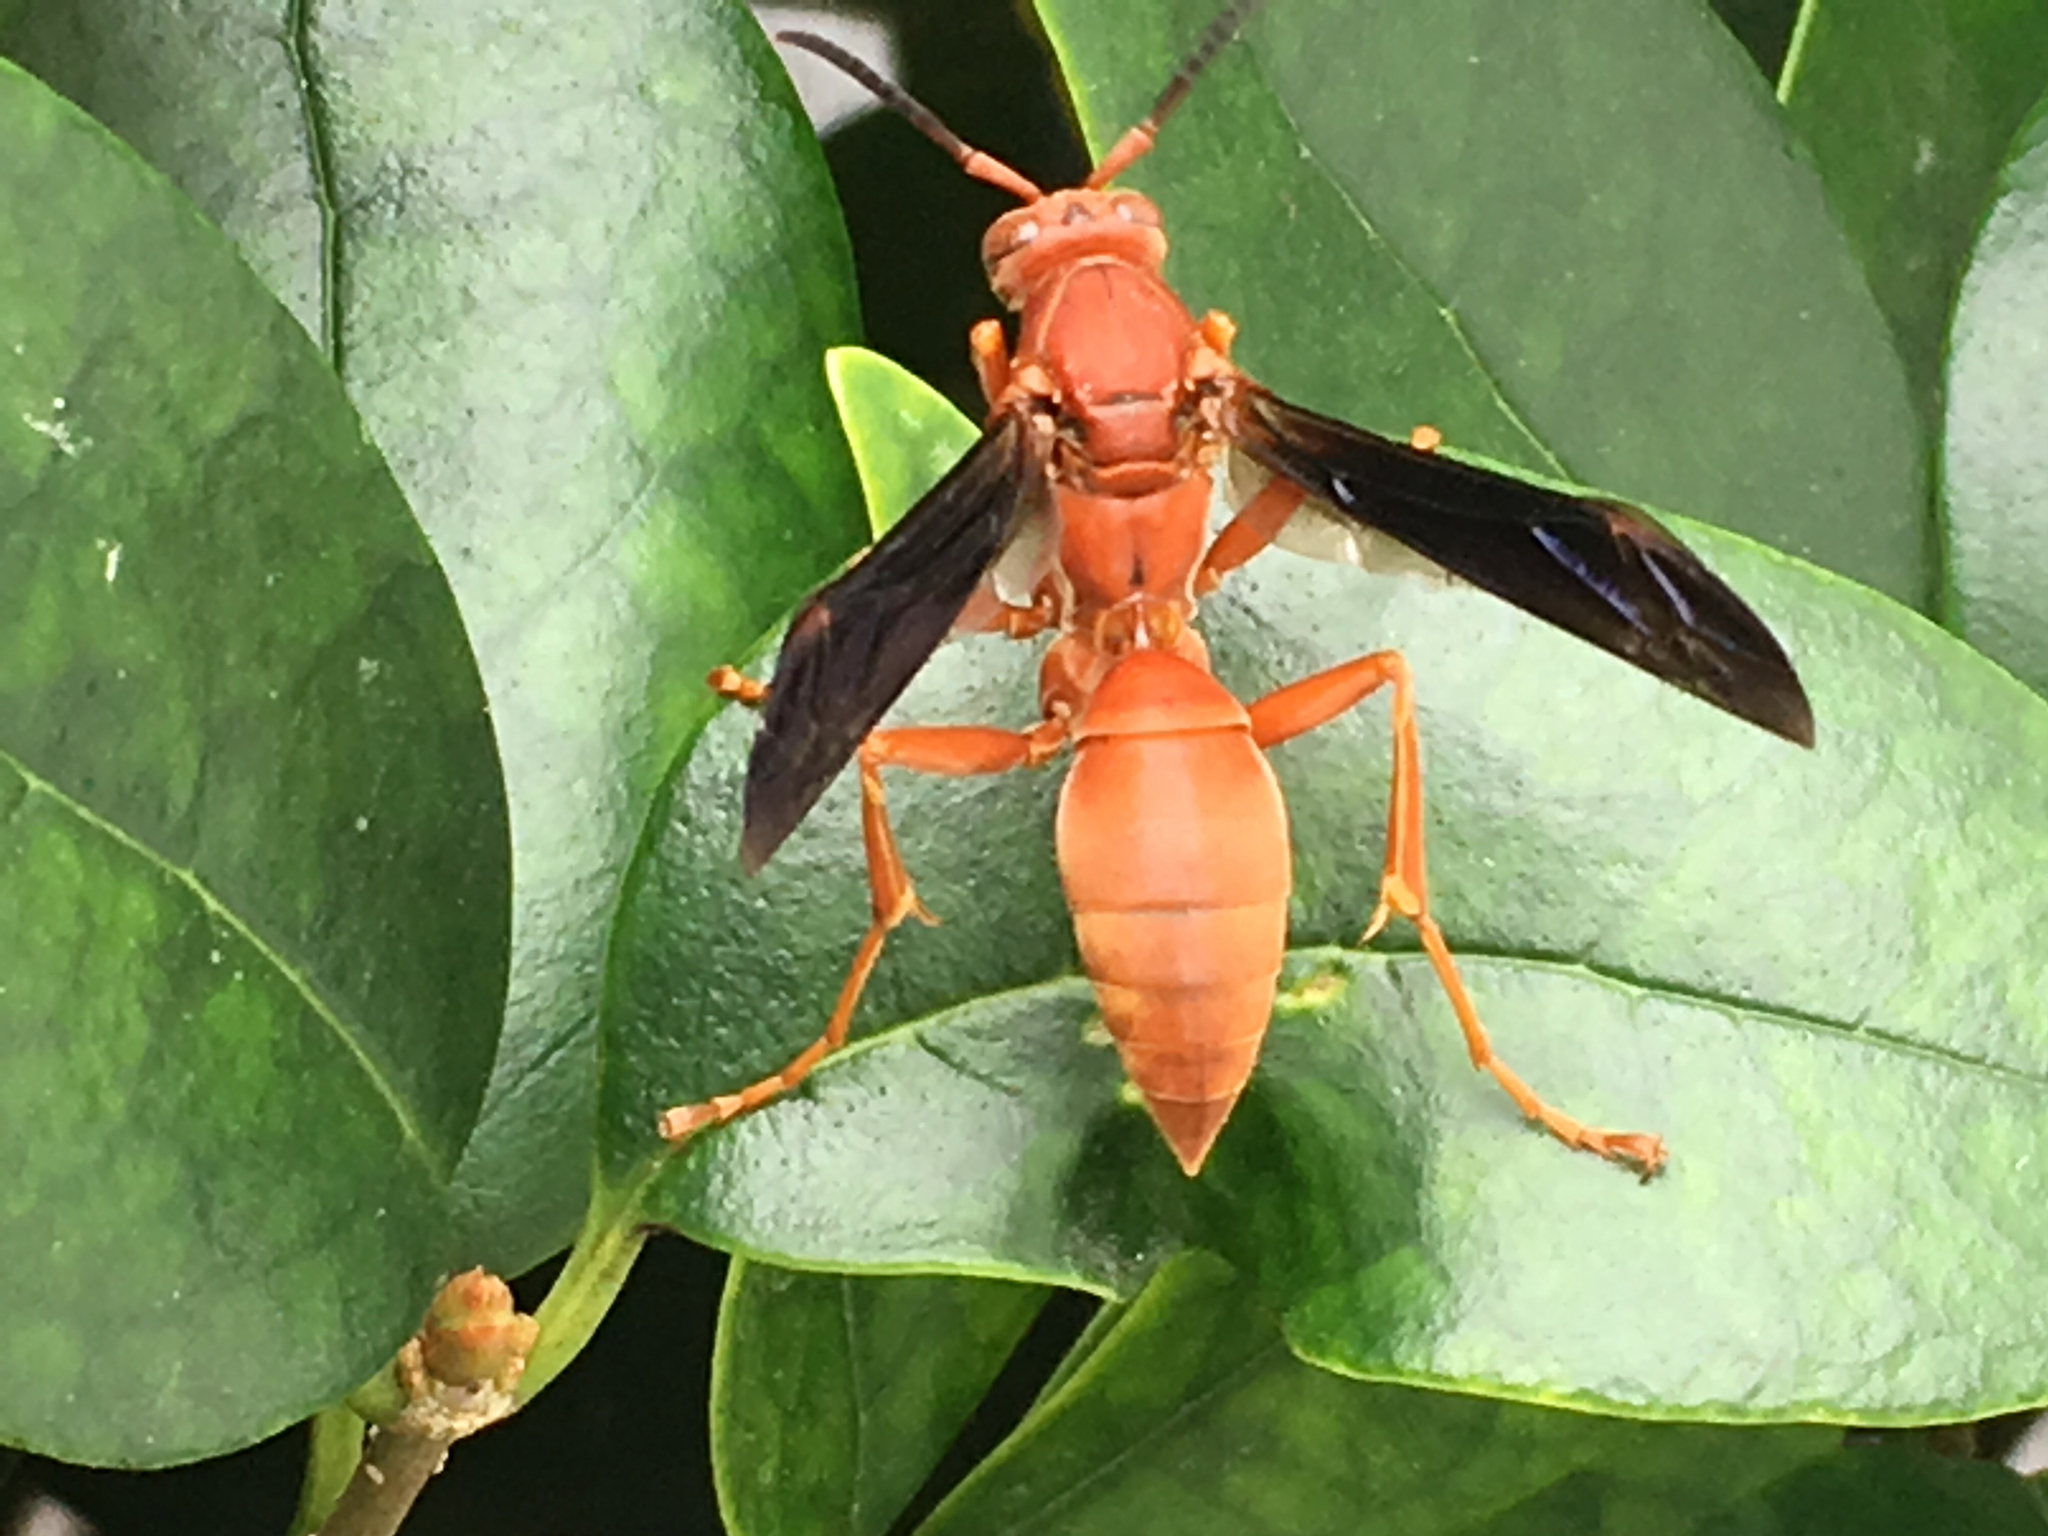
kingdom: Animalia
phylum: Arthropoda
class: Insecta
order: Hymenoptera
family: Eumenidae
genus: Polistes
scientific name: Polistes carolina
